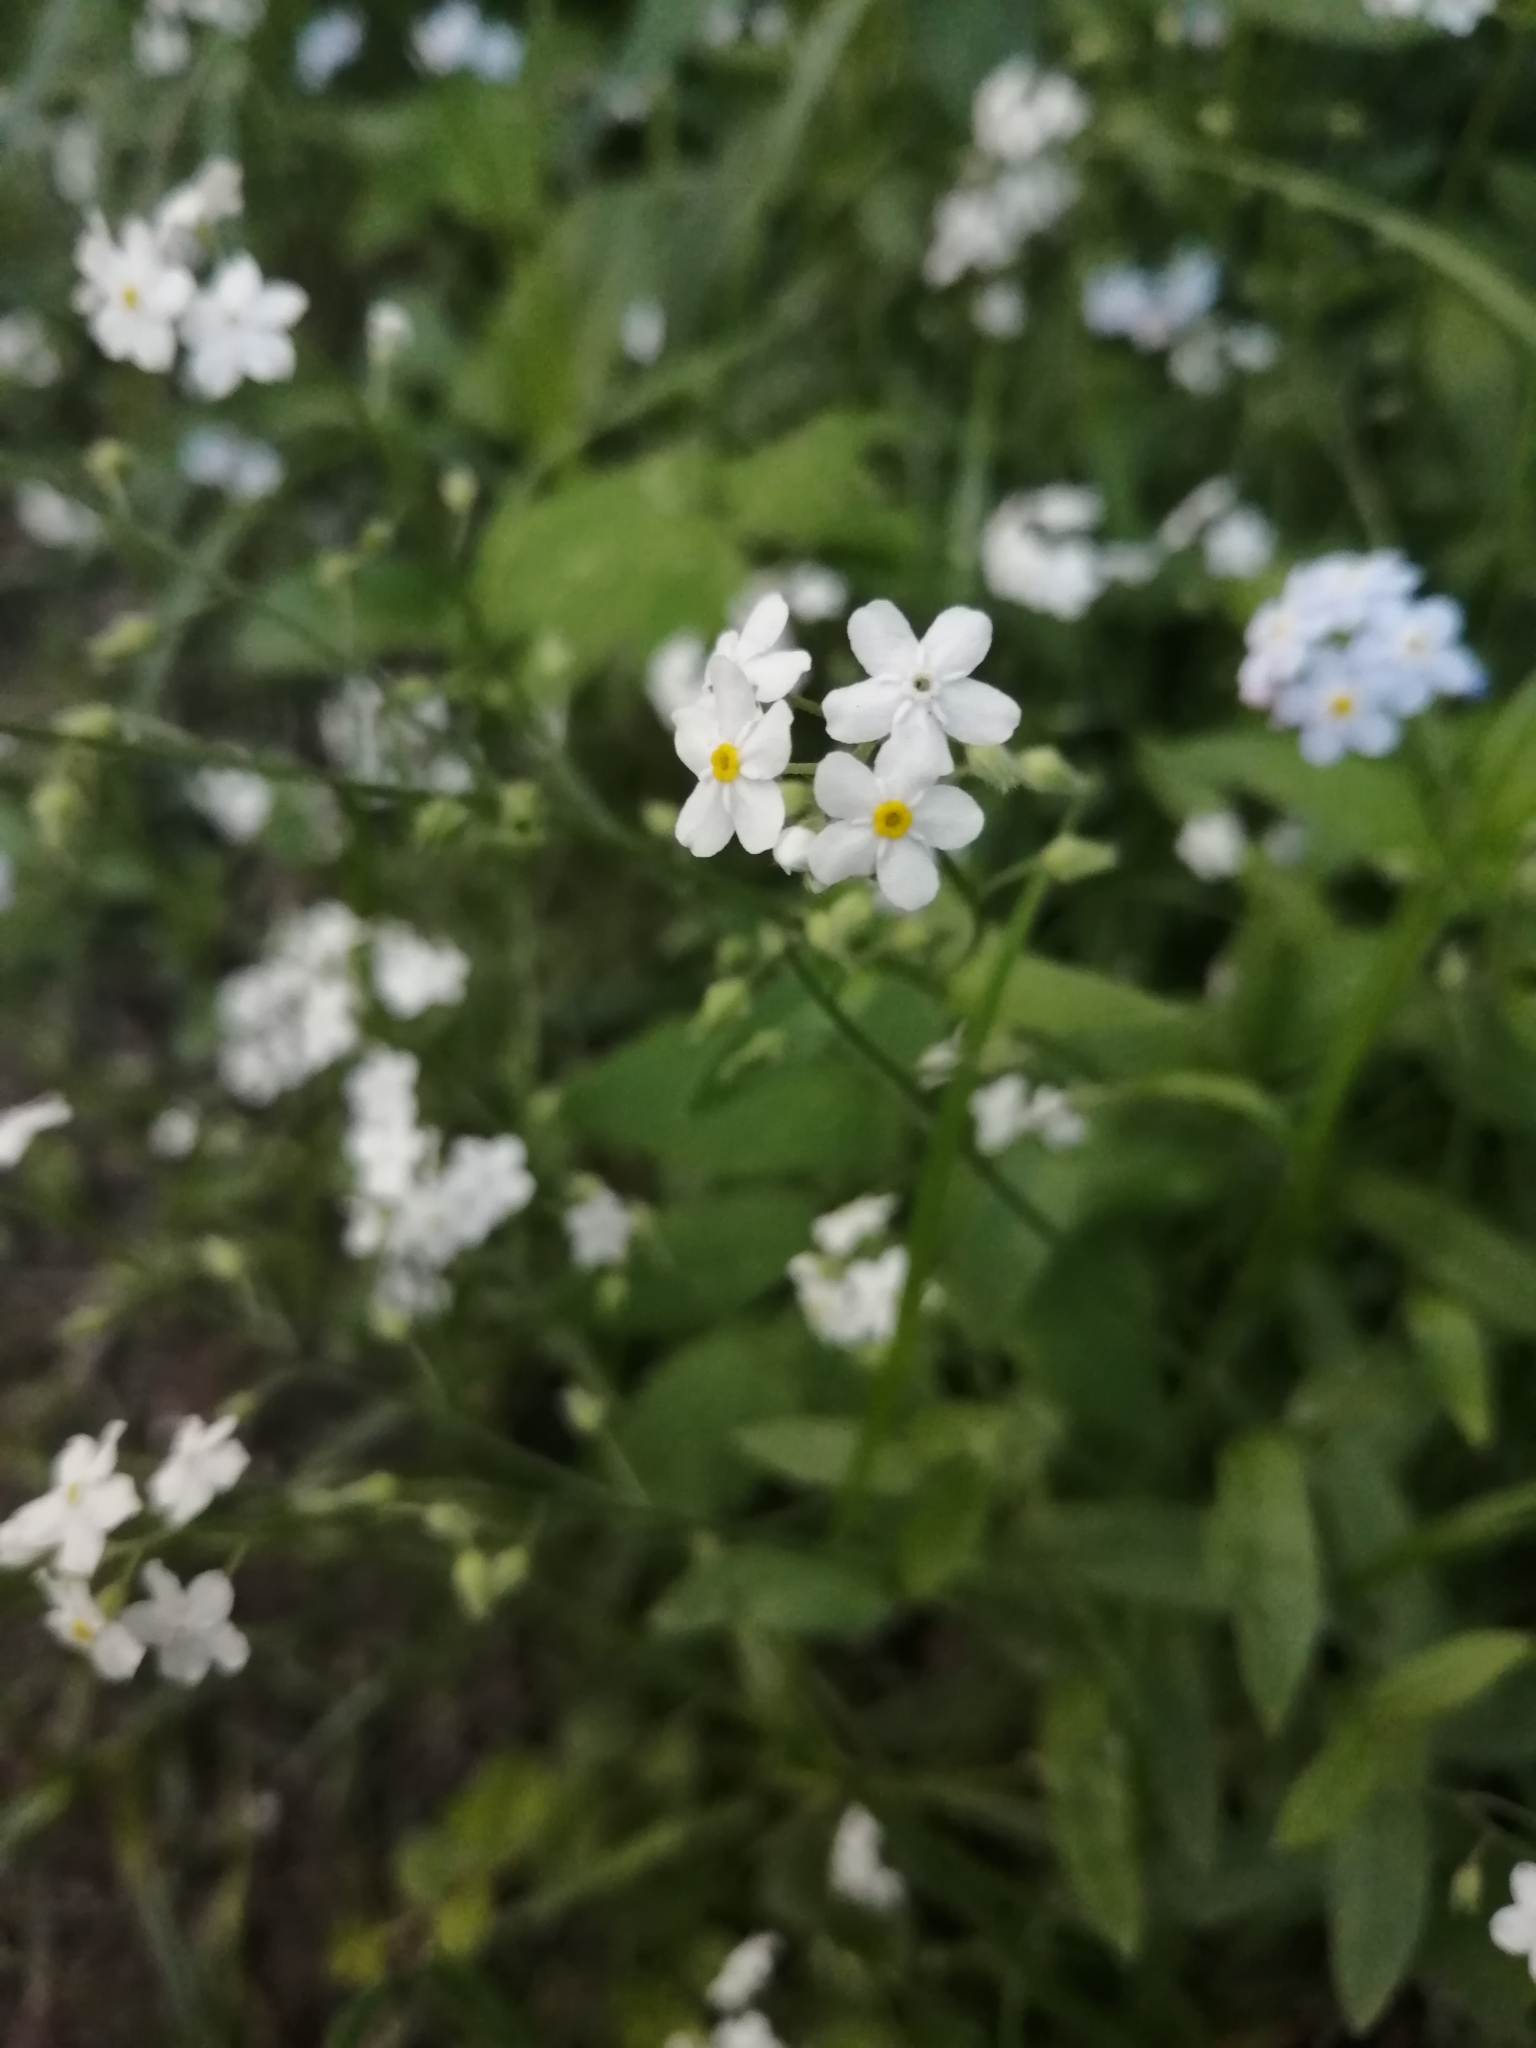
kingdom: Plantae
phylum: Tracheophyta
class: Magnoliopsida
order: Boraginales
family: Boraginaceae
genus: Myosotis
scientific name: Myosotis sylvatica
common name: Wood forget-me-not
